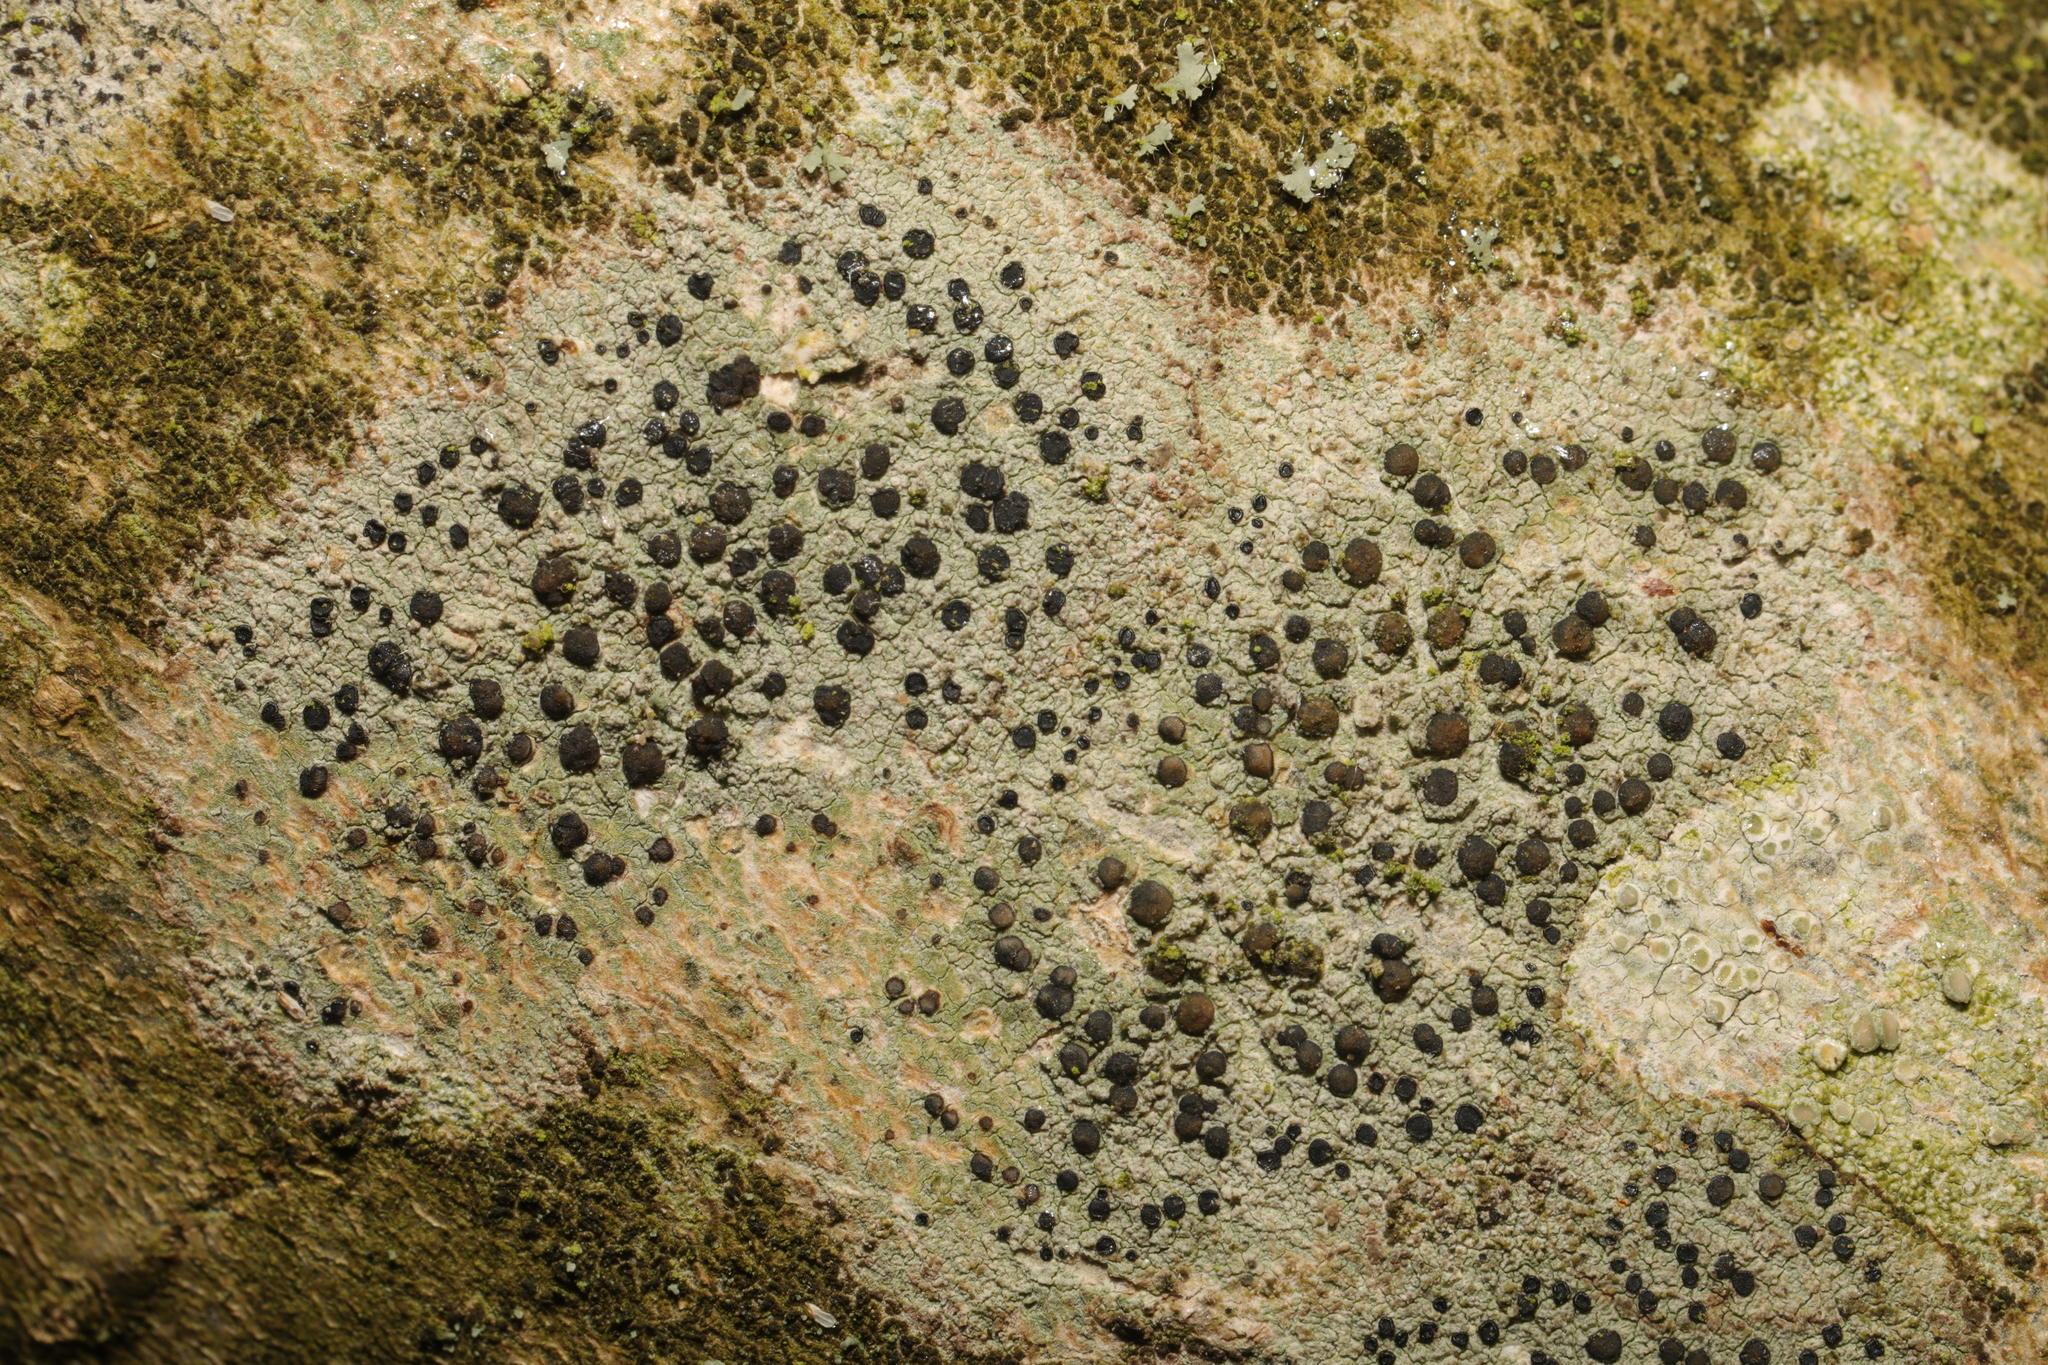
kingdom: Fungi
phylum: Ascomycota
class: Lecanoromycetes
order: Lecanorales
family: Lecanoraceae
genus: Lecidella
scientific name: Lecidella elaeochroma
